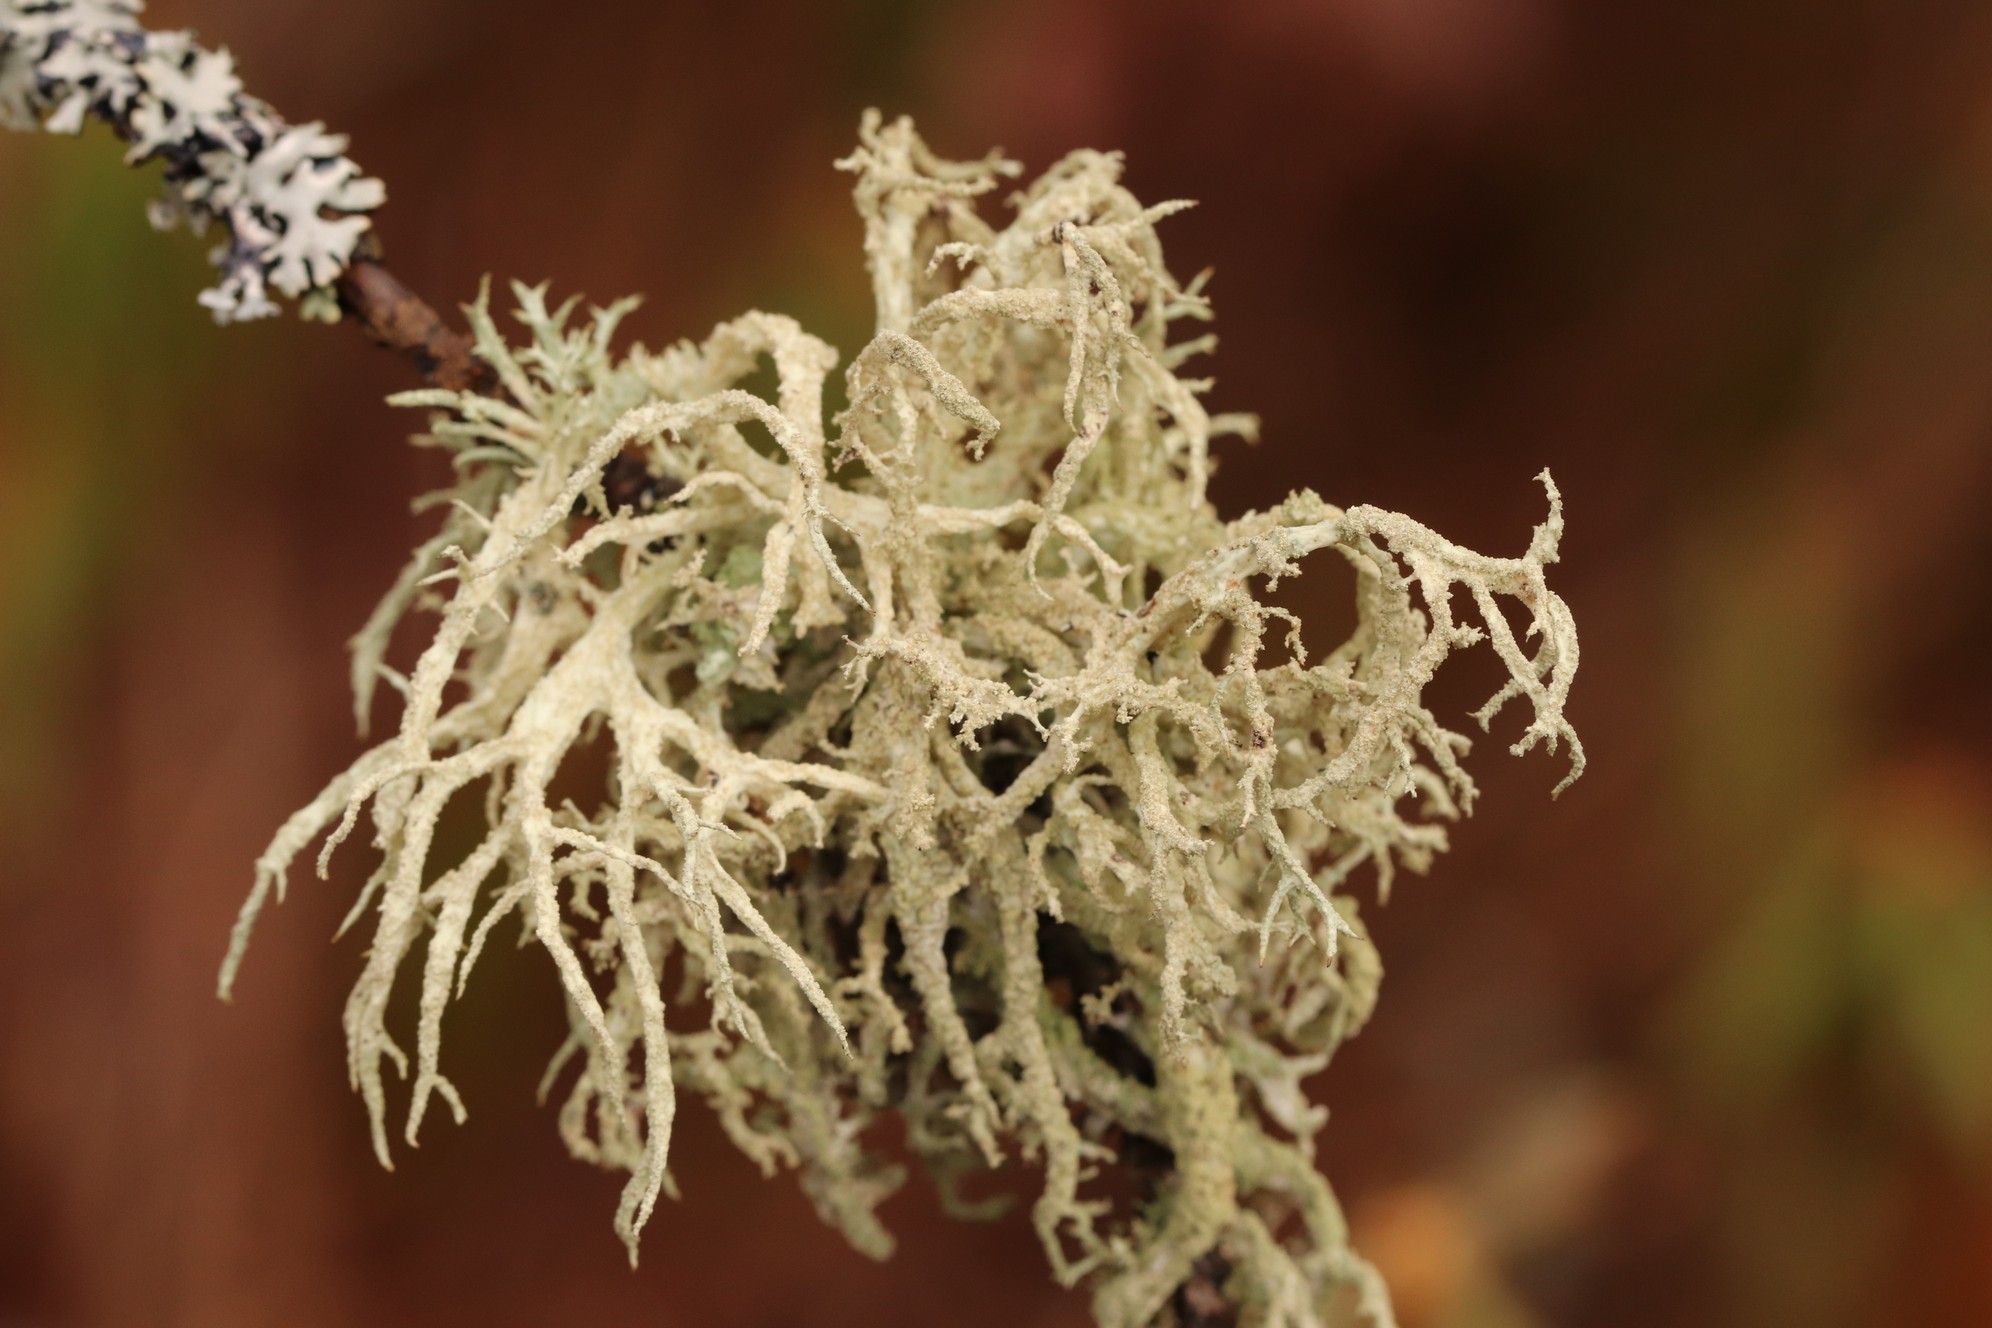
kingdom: Fungi
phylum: Ascomycota
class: Lecanoromycetes
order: Lecanorales
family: Parmeliaceae
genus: Evernia
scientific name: Evernia prunastri
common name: Oak moss
